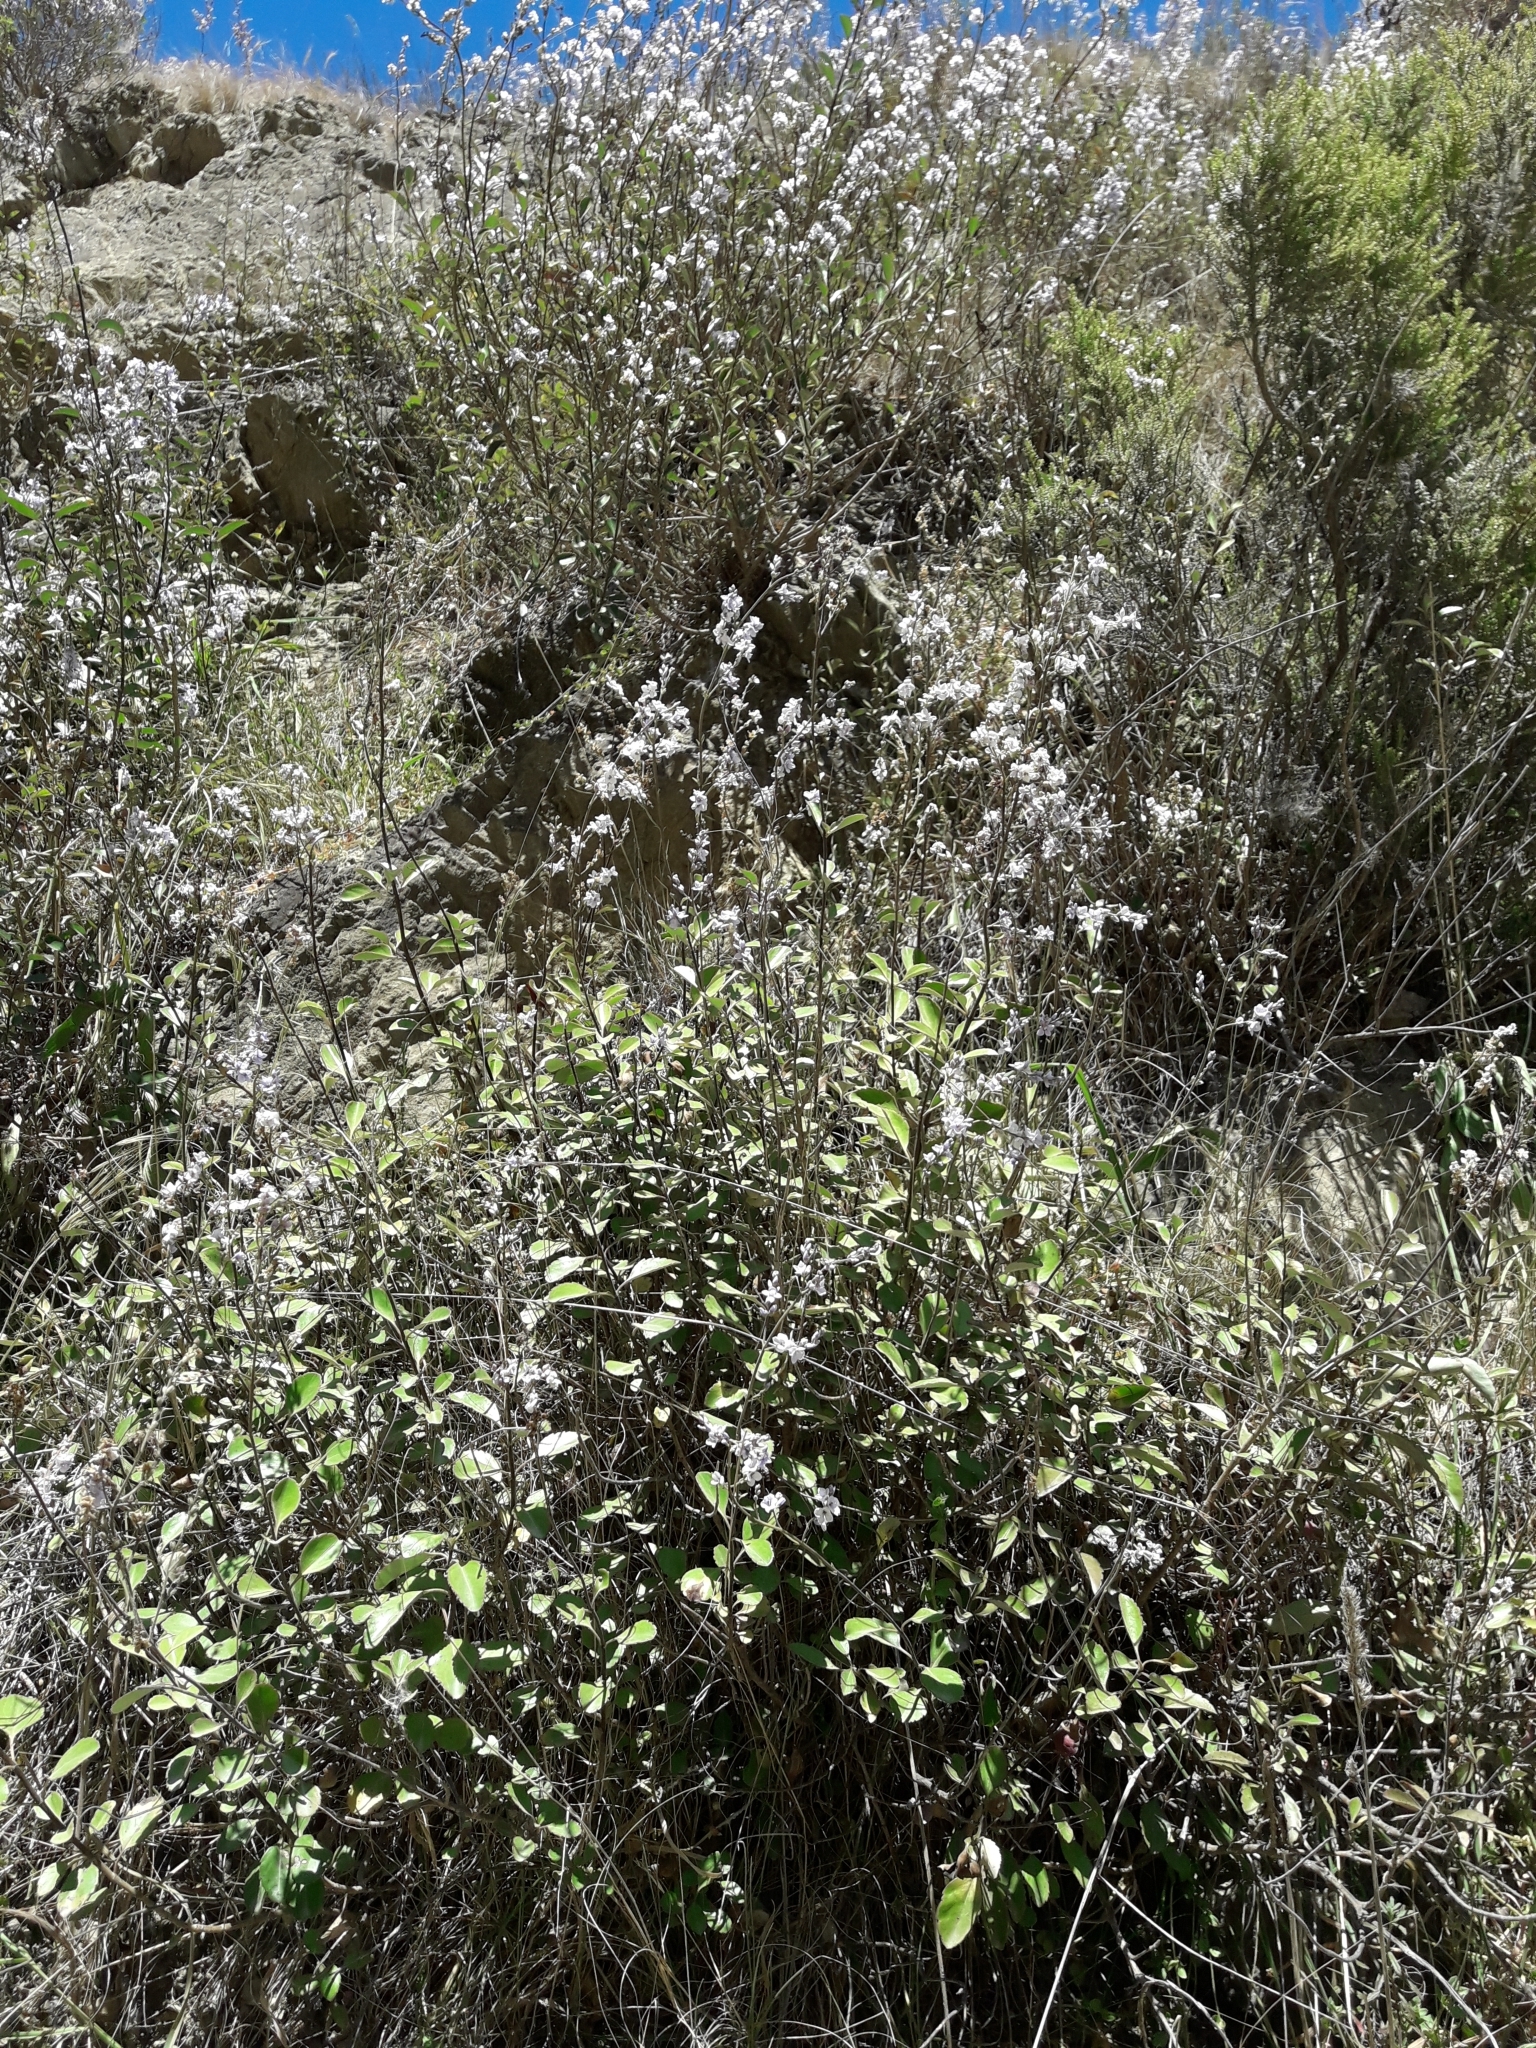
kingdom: Plantae
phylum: Tracheophyta
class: Magnoliopsida
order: Lamiales
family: Plantaginaceae
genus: Veronica
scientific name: Veronica hulkeana
